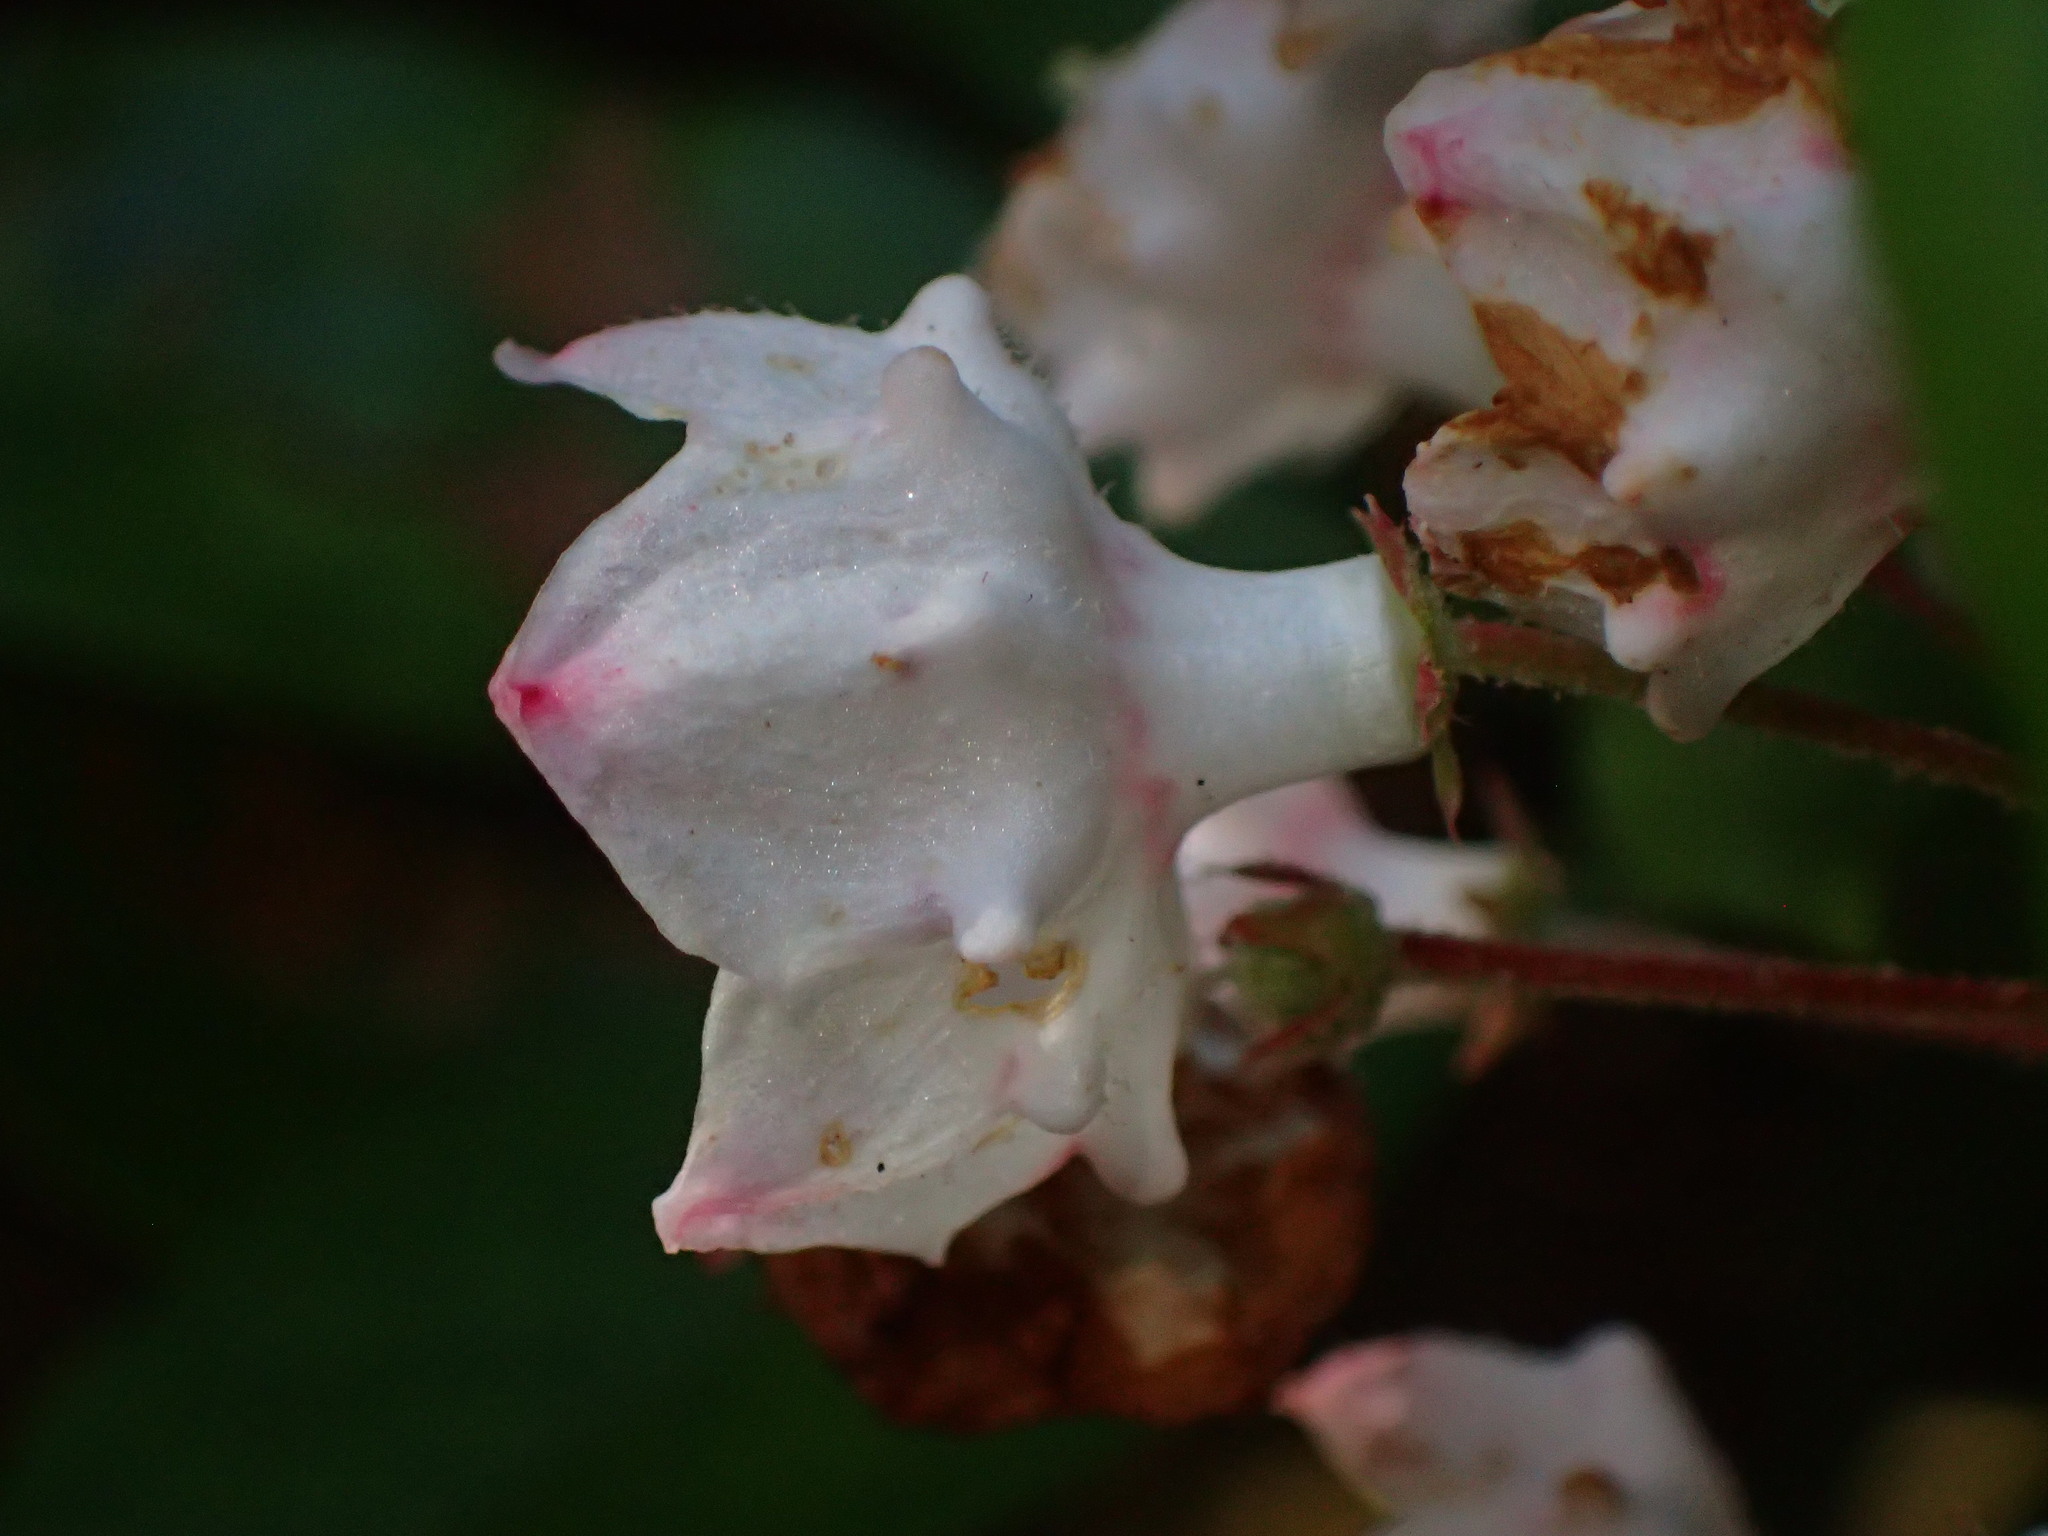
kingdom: Plantae
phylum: Tracheophyta
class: Magnoliopsida
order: Ericales
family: Ericaceae
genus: Kalmia
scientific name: Kalmia latifolia
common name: Mountain-laurel
